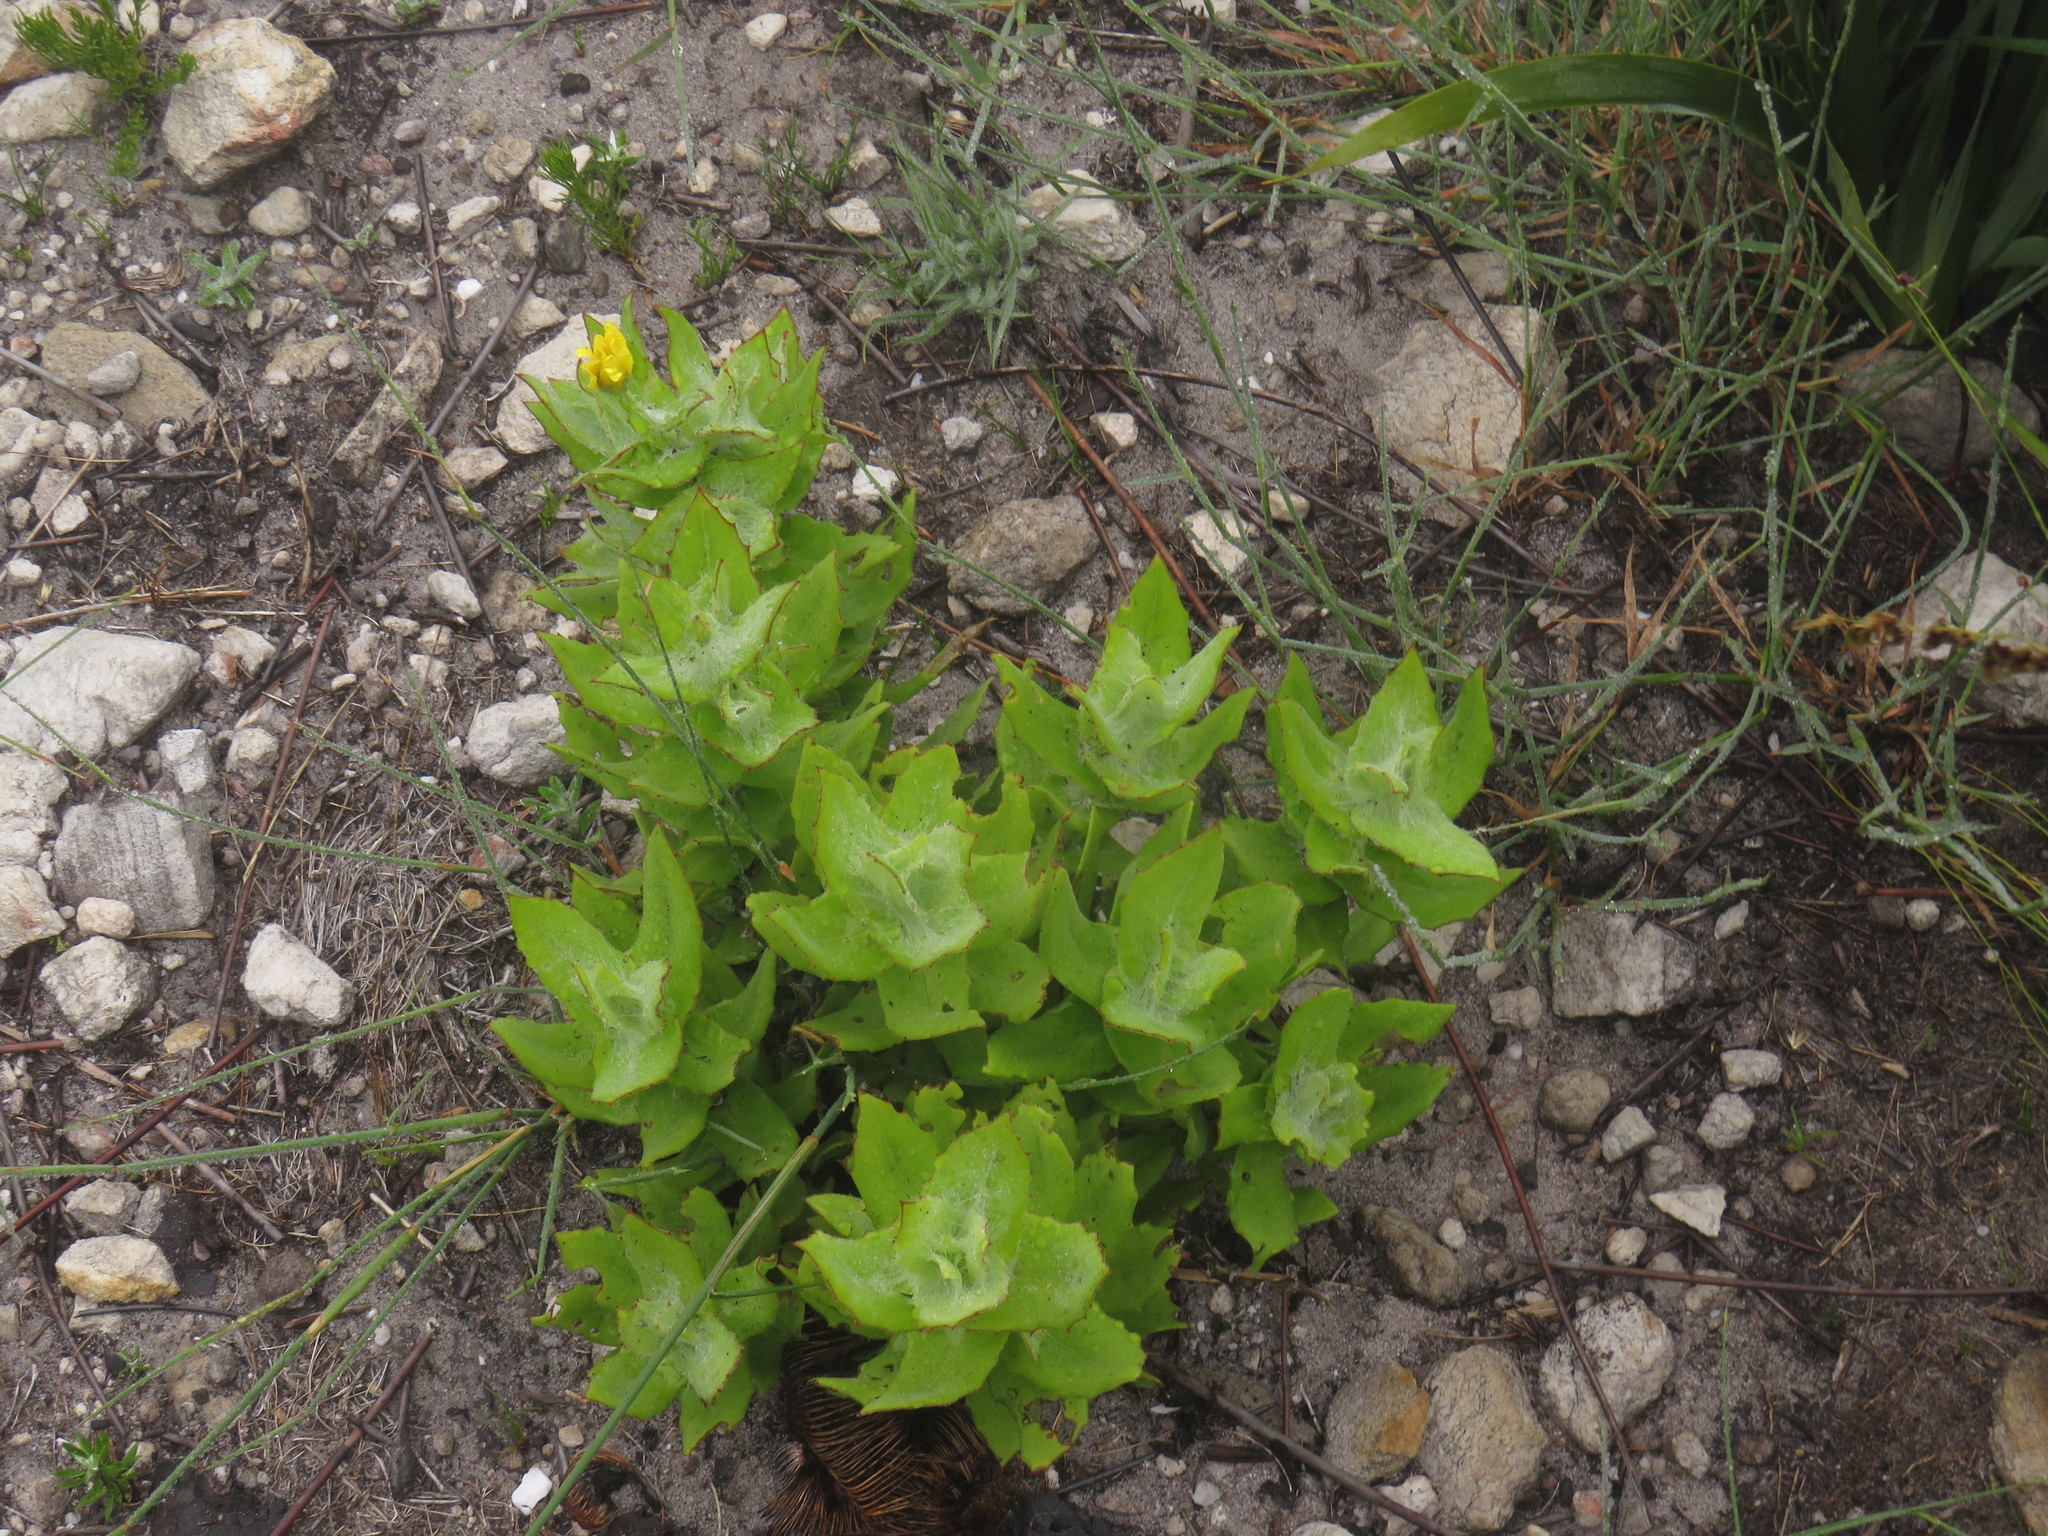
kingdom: Plantae
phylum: Tracheophyta
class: Magnoliopsida
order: Asterales
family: Asteraceae
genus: Osteospermum
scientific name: Osteospermum ilicifolium
